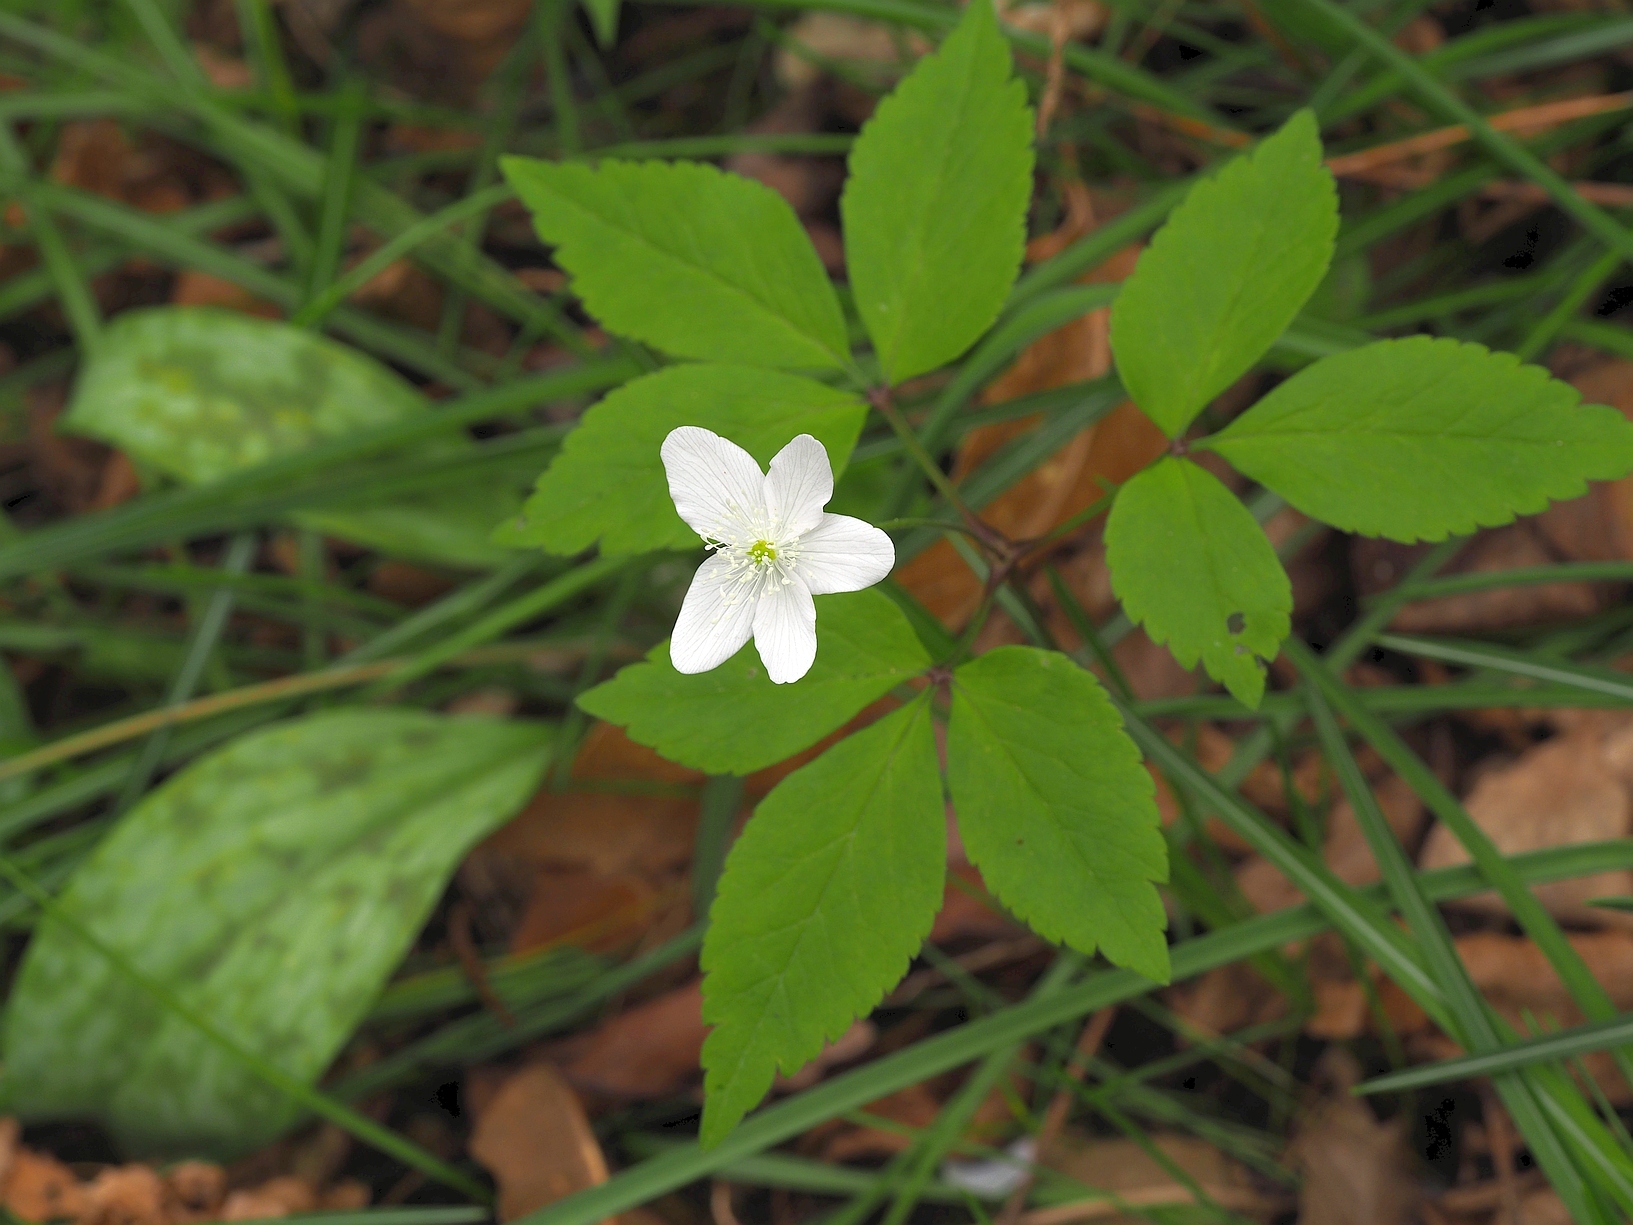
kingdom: Plantae
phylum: Tracheophyta
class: Magnoliopsida
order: Ranunculales
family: Ranunculaceae
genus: Anemone
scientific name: Anemone trifolia
